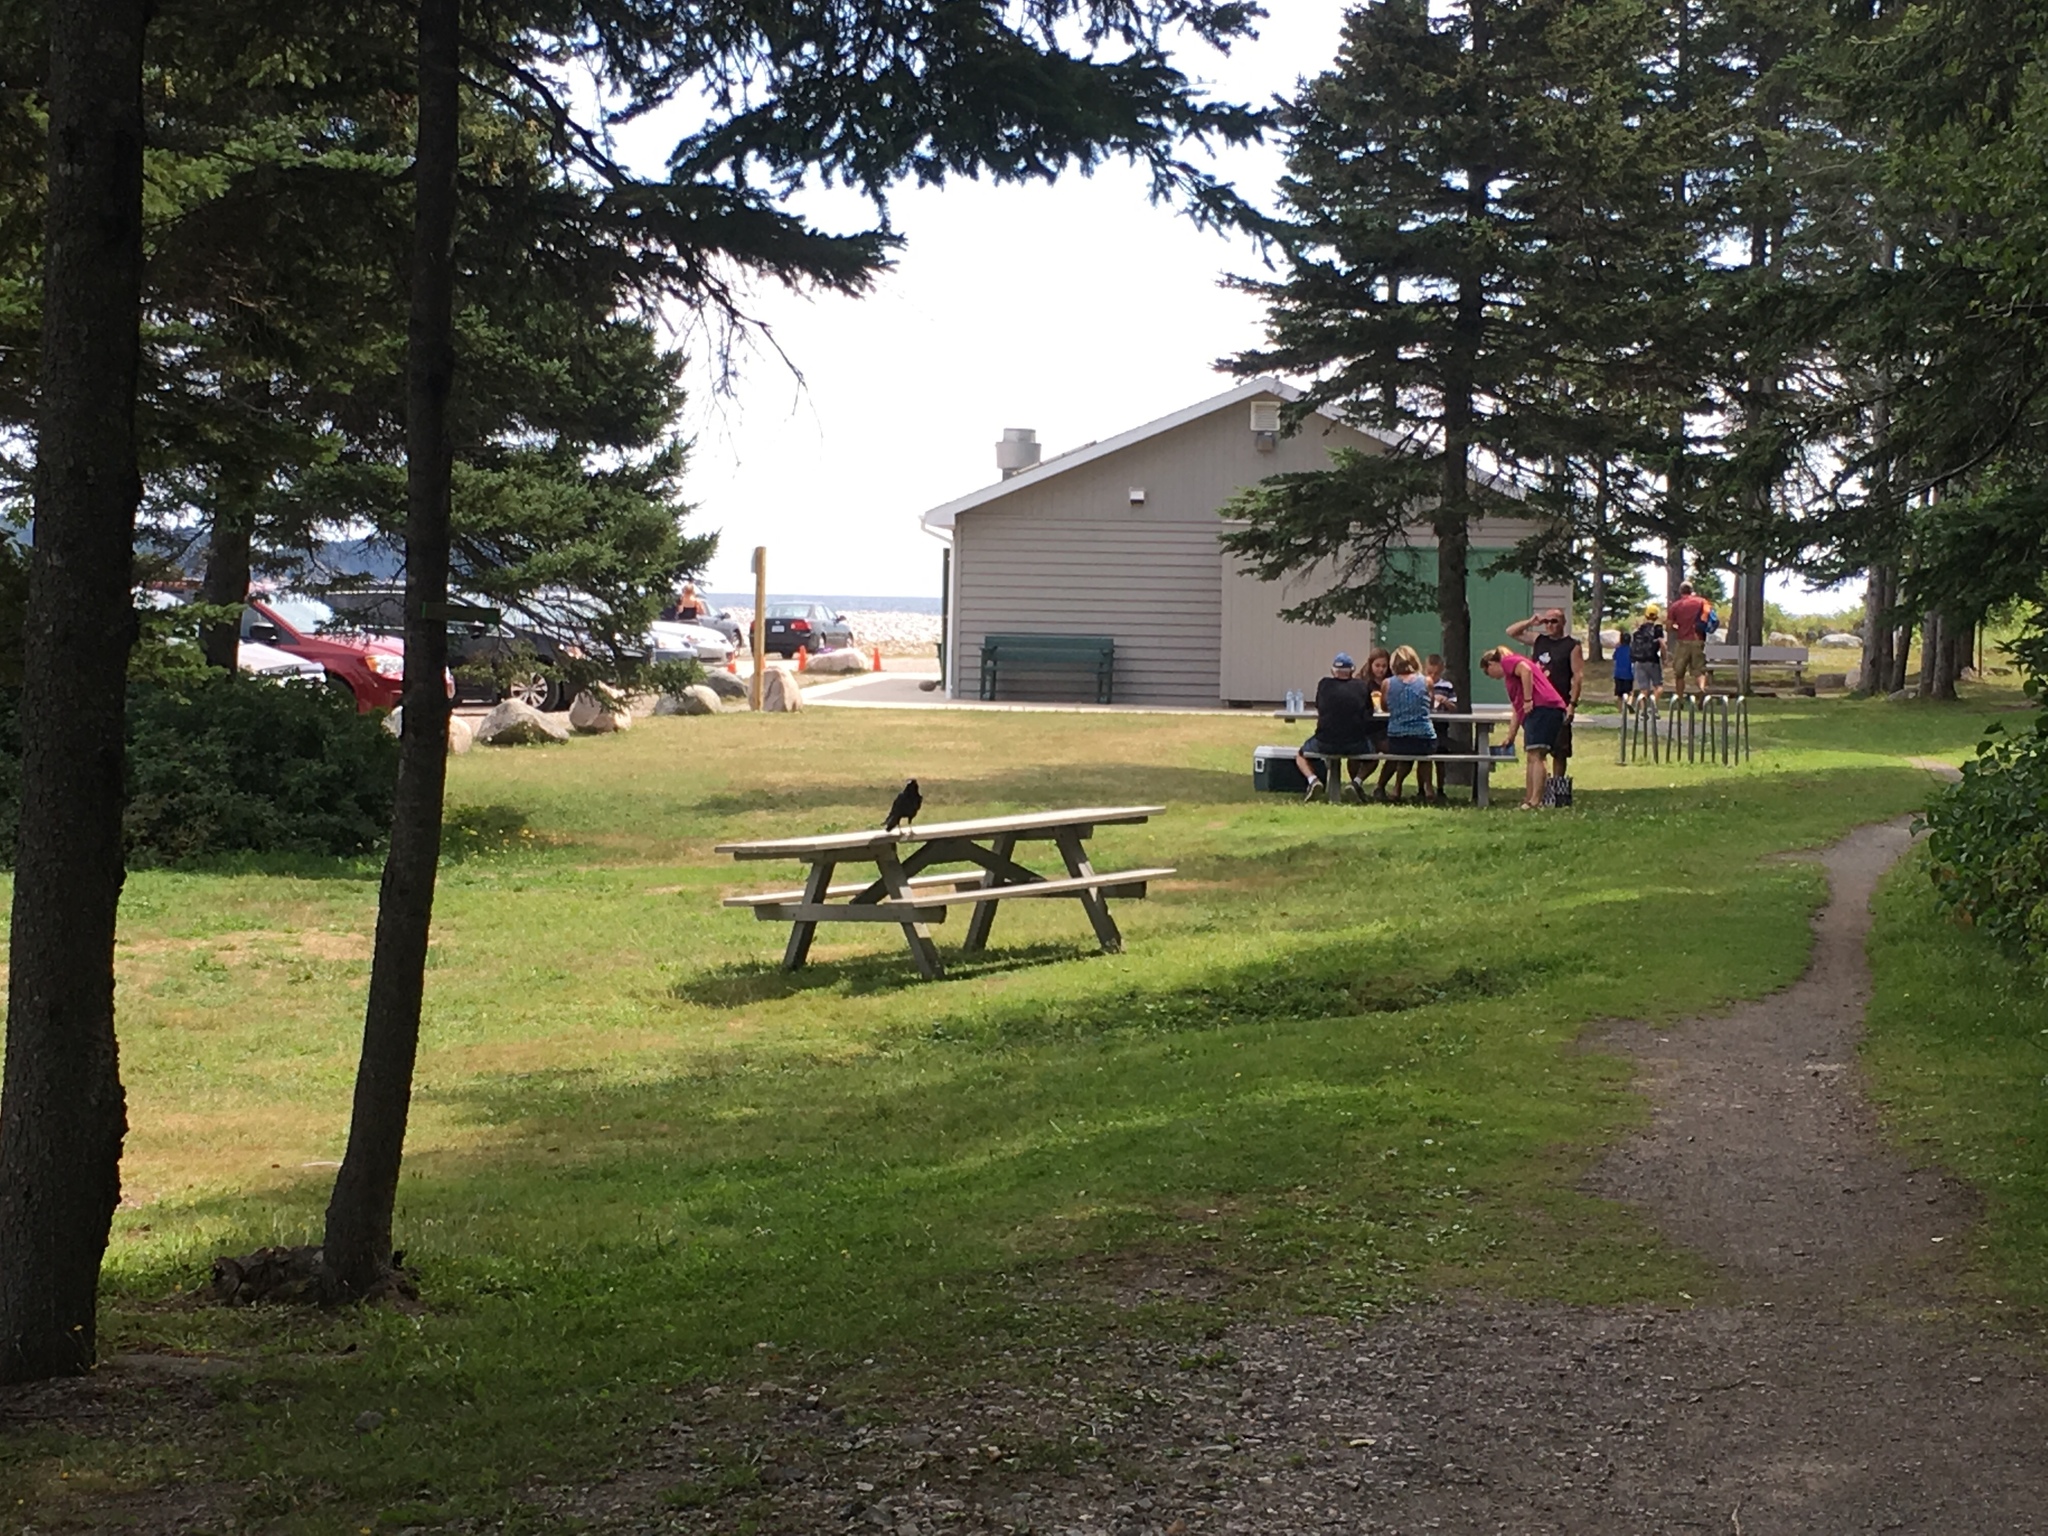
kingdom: Animalia
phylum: Chordata
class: Aves
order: Passeriformes
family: Corvidae
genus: Corvus
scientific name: Corvus brachyrhynchos
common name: American crow
